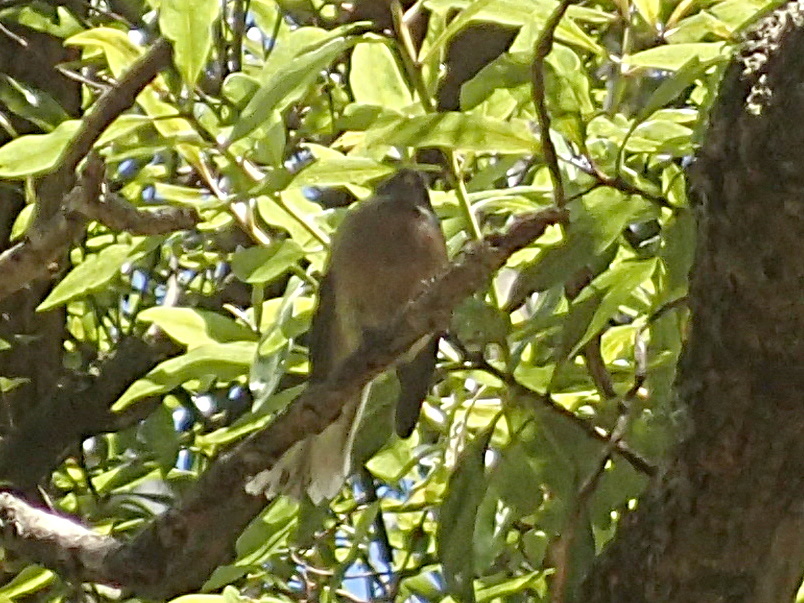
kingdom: Animalia
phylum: Chordata
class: Aves
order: Passeriformes
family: Rhipiduridae
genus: Rhipidura
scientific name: Rhipidura fuliginosa
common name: New zealand fantail
